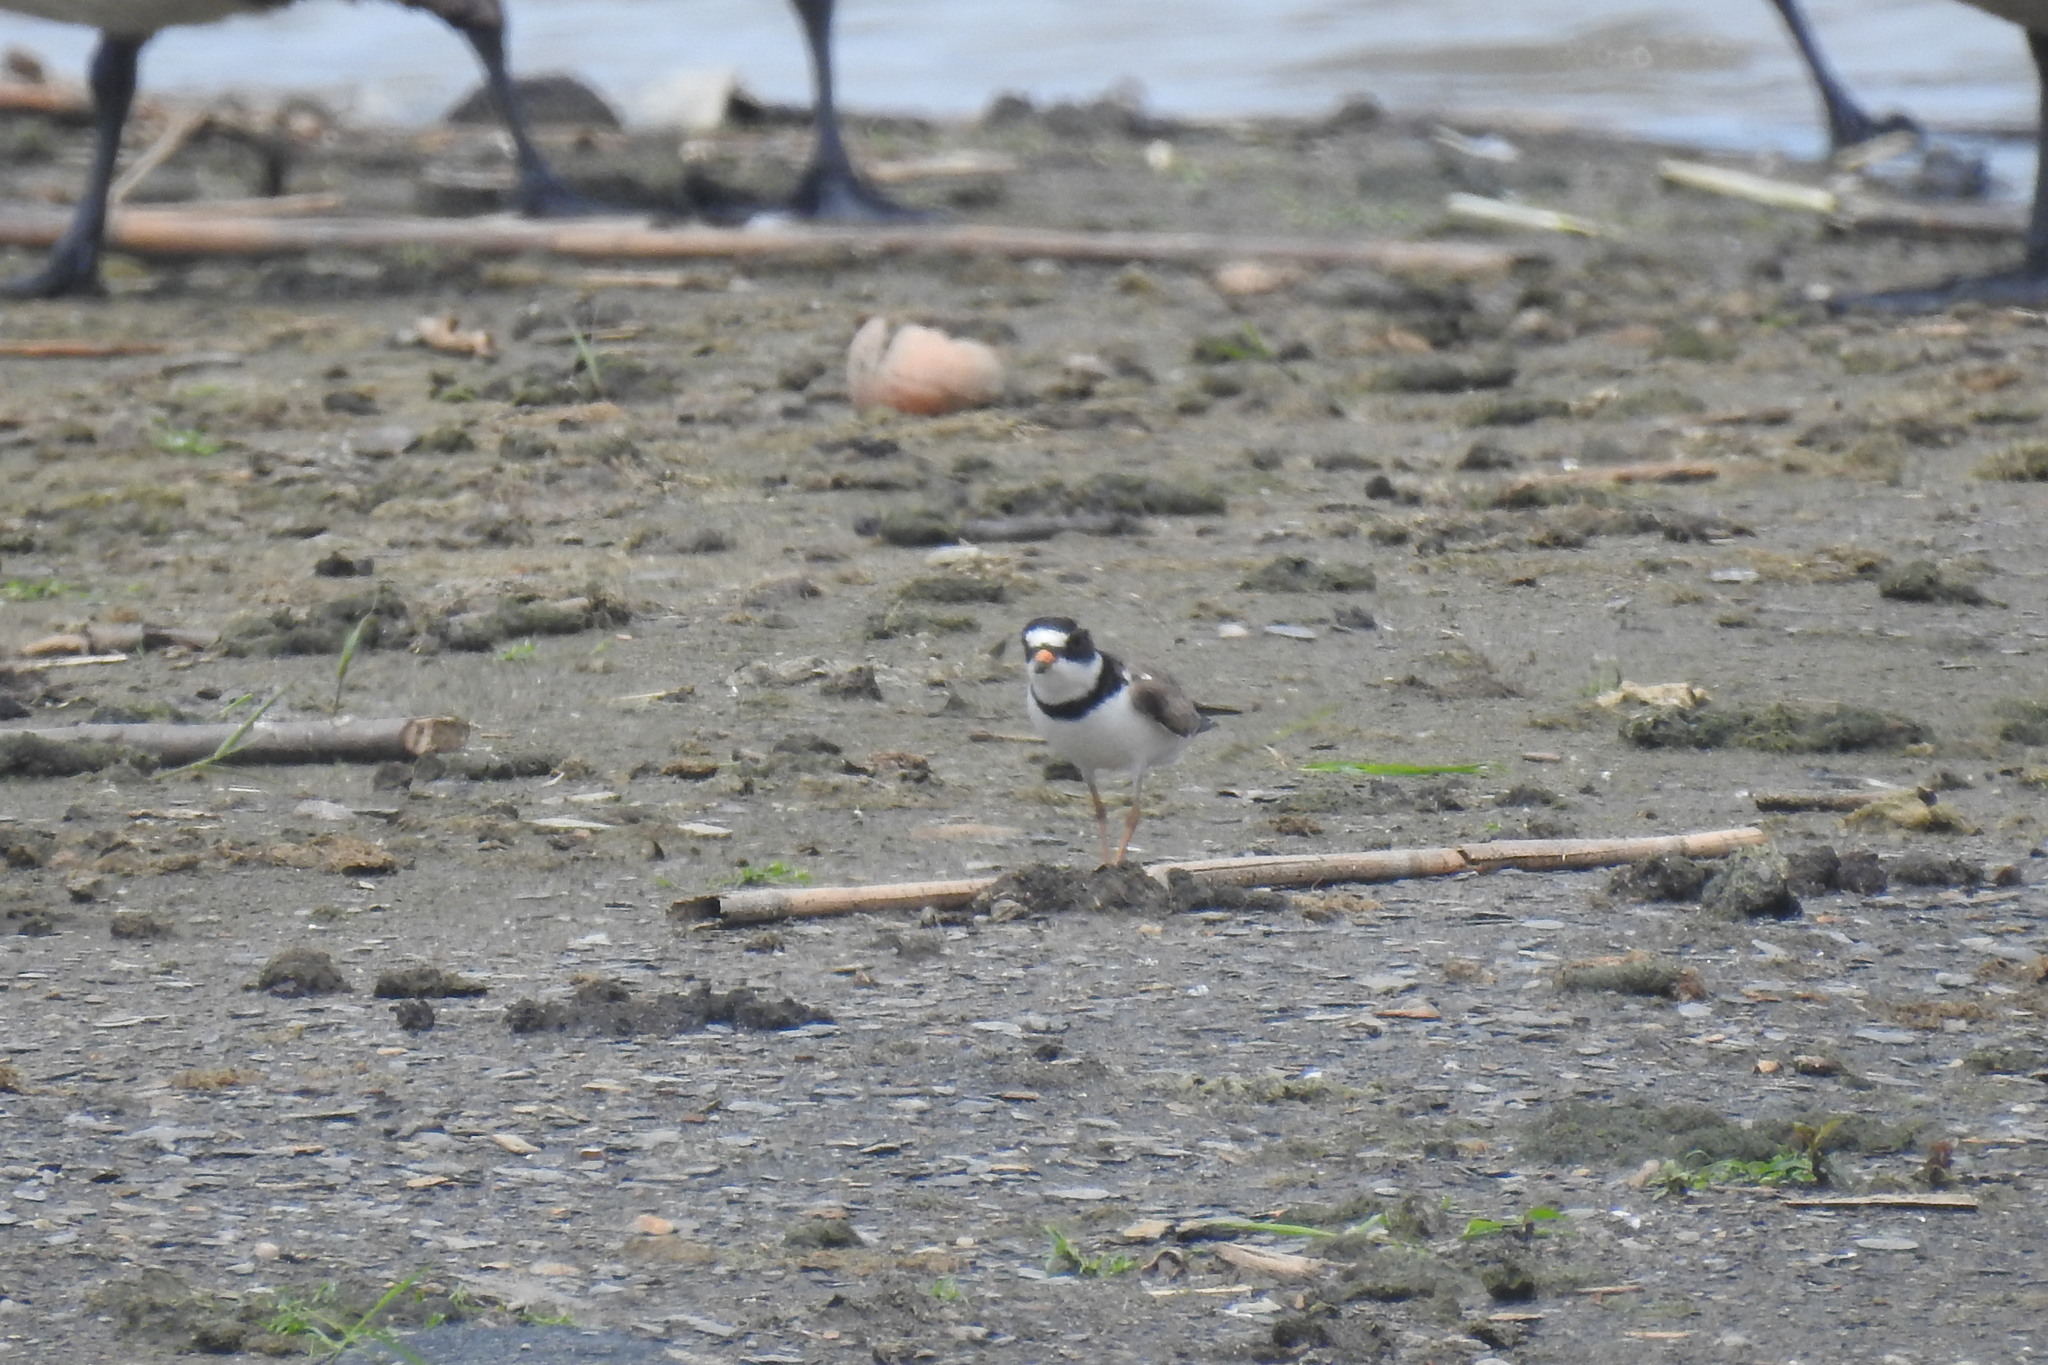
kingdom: Animalia
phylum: Chordata
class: Aves
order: Charadriiformes
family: Charadriidae
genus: Charadrius
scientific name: Charadrius semipalmatus
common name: Semipalmated plover
